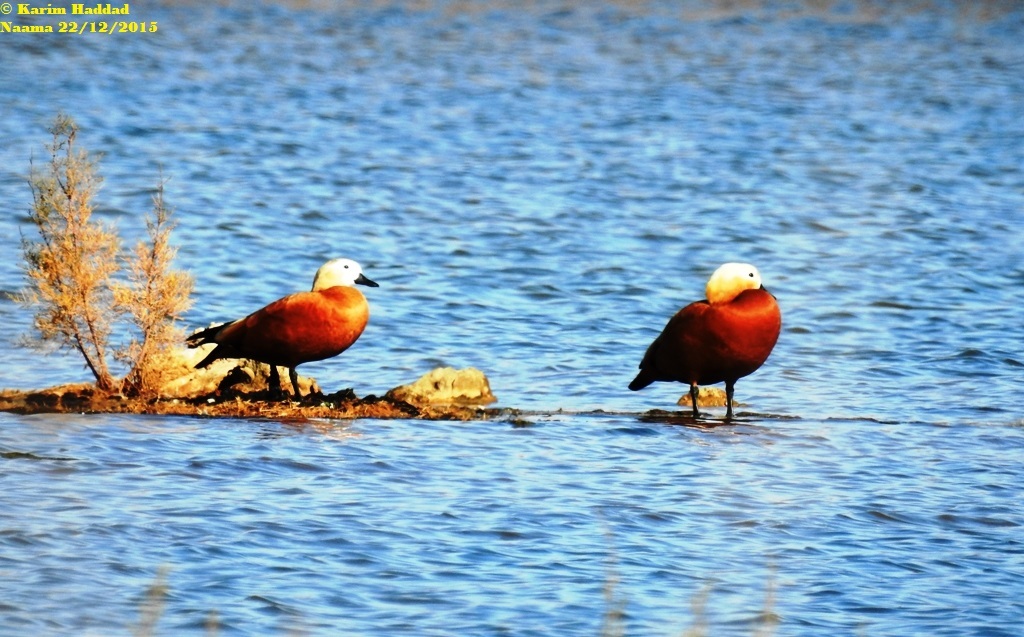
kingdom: Animalia
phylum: Chordata
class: Aves
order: Anseriformes
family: Anatidae
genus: Tadorna
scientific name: Tadorna ferruginea
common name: Ruddy shelduck
